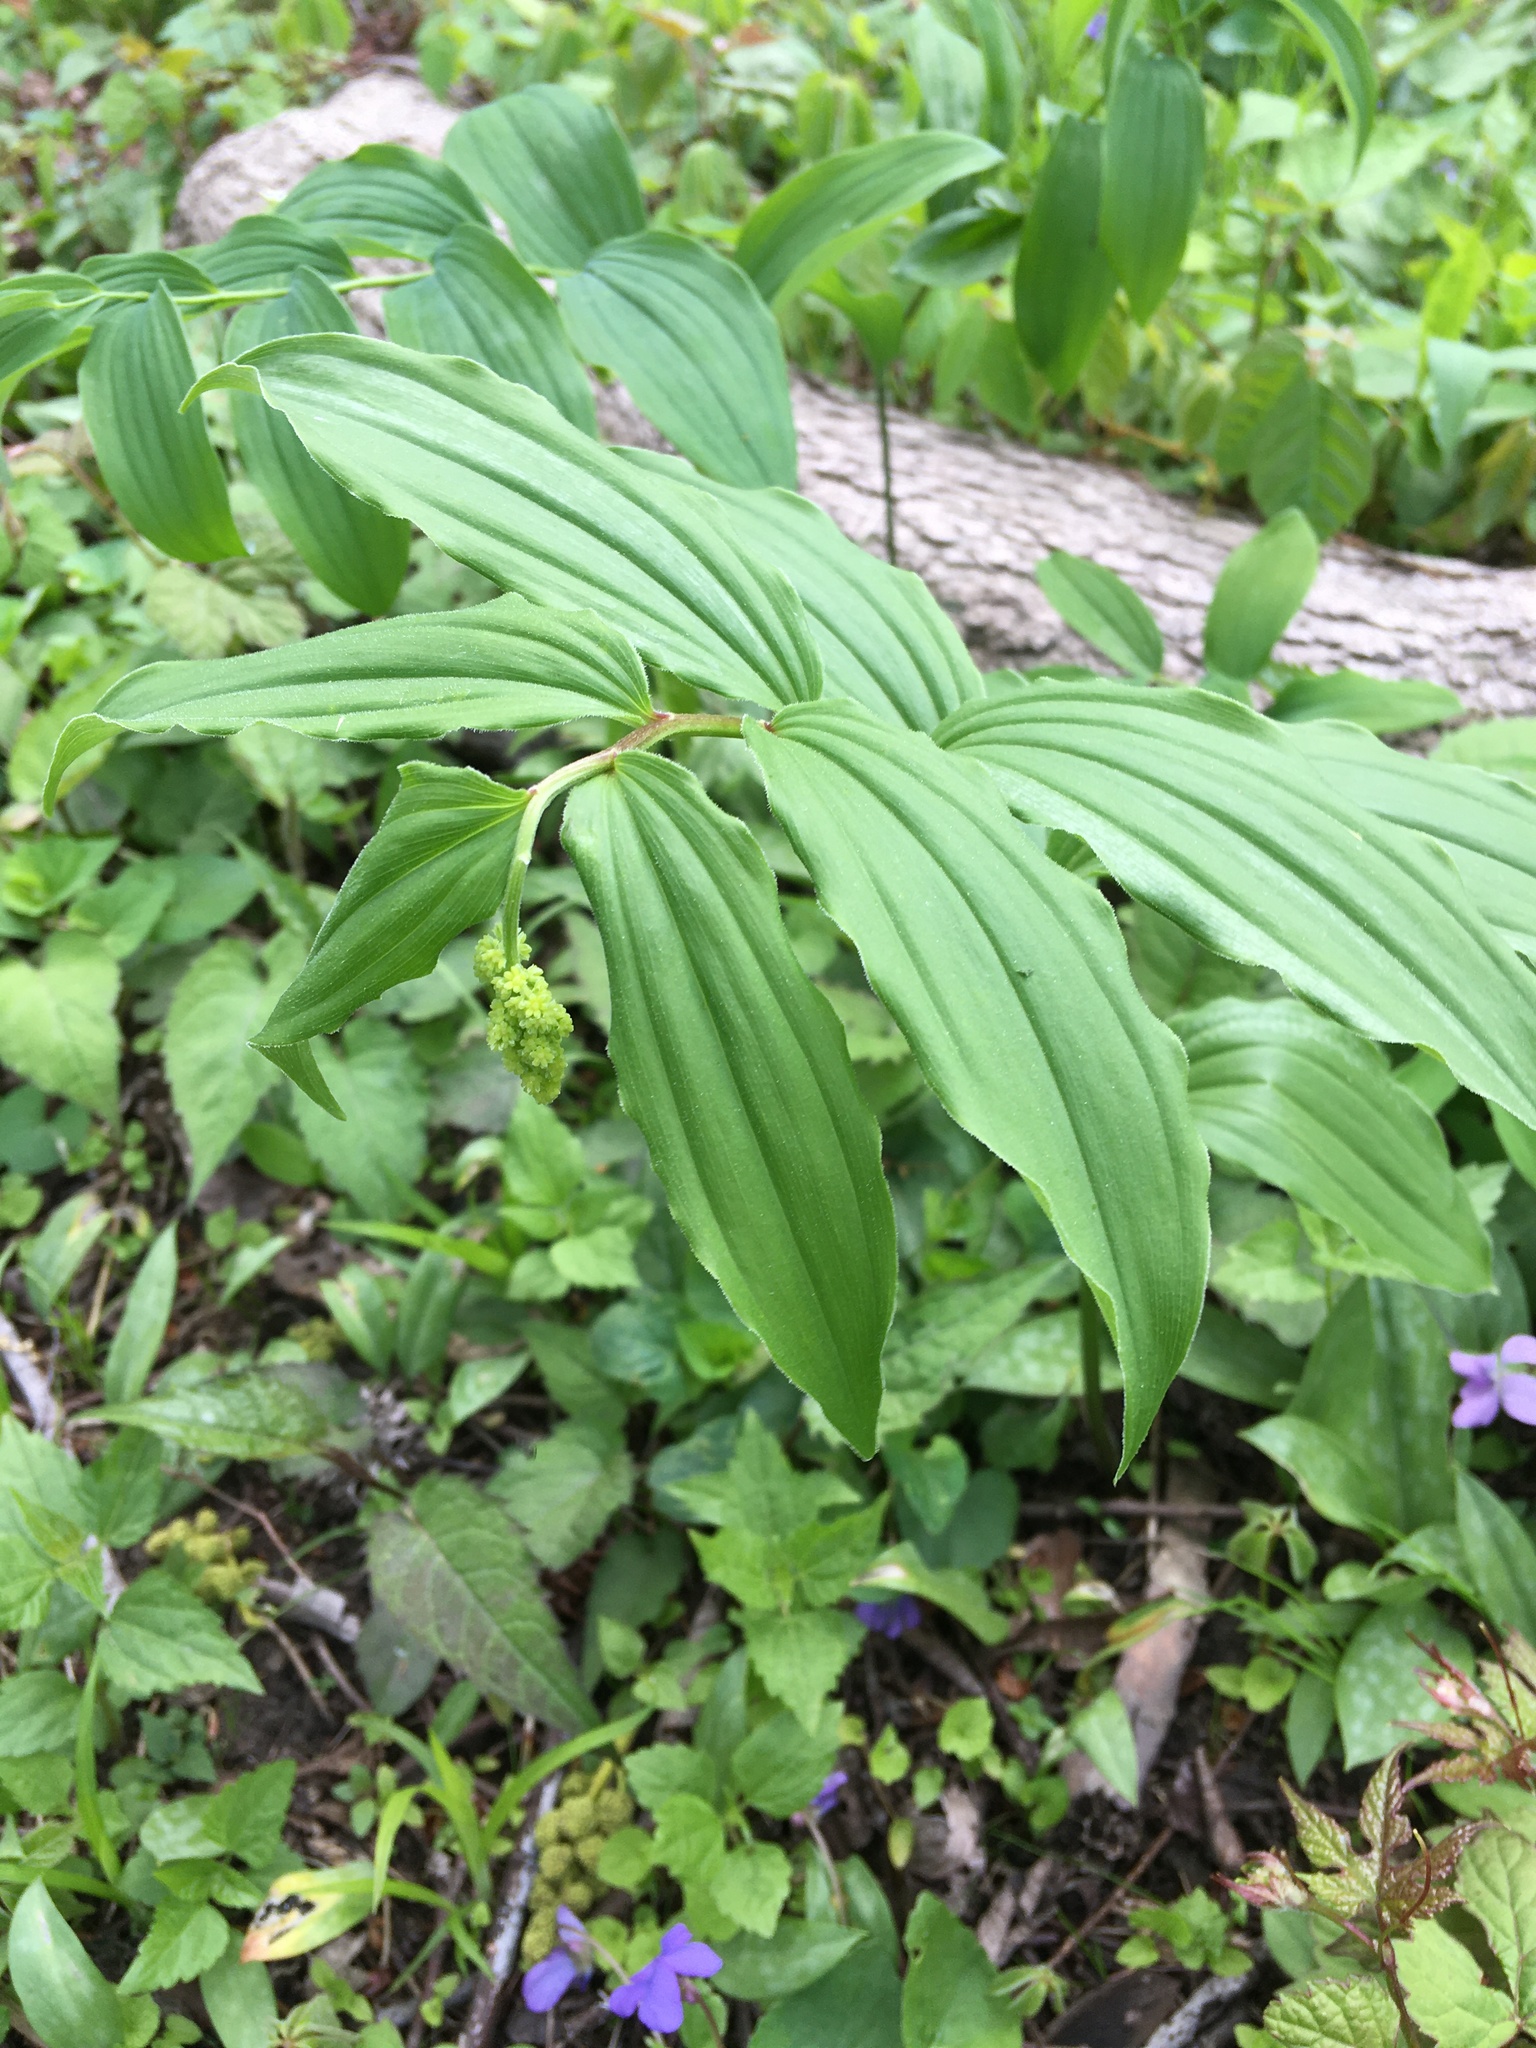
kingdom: Plantae
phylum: Tracheophyta
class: Liliopsida
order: Asparagales
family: Asparagaceae
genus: Maianthemum
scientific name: Maianthemum racemosum
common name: False spikenard
